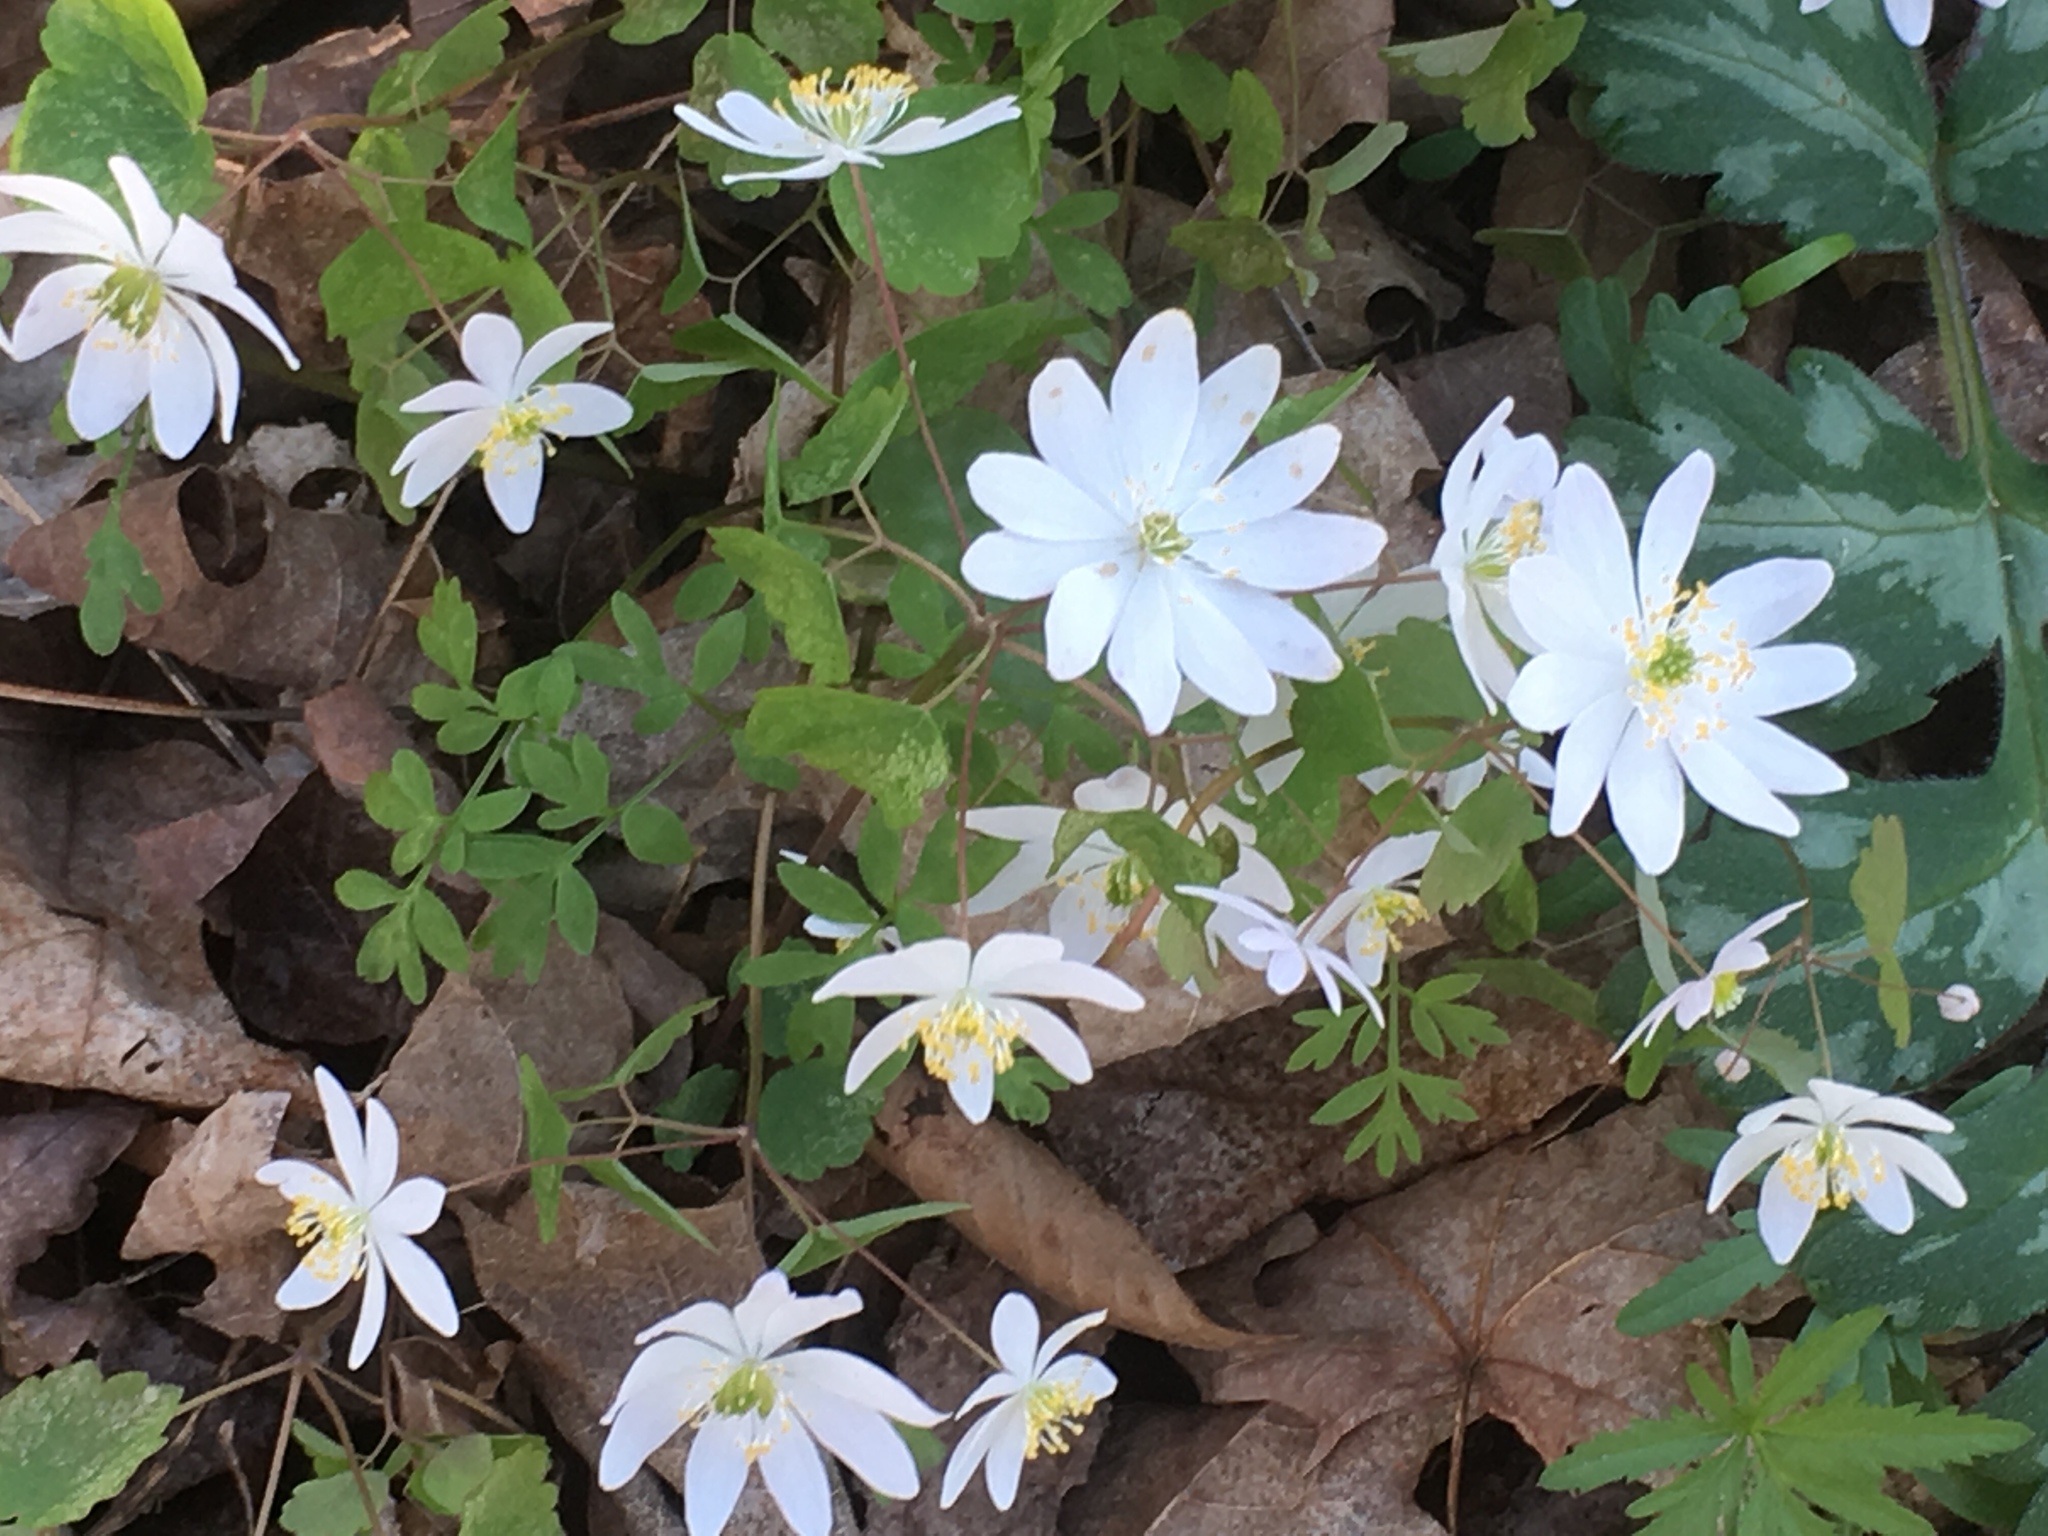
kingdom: Plantae
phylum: Tracheophyta
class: Magnoliopsida
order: Ranunculales
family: Ranunculaceae
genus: Thalictrum
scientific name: Thalictrum thalictroides
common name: Rue-anemone
